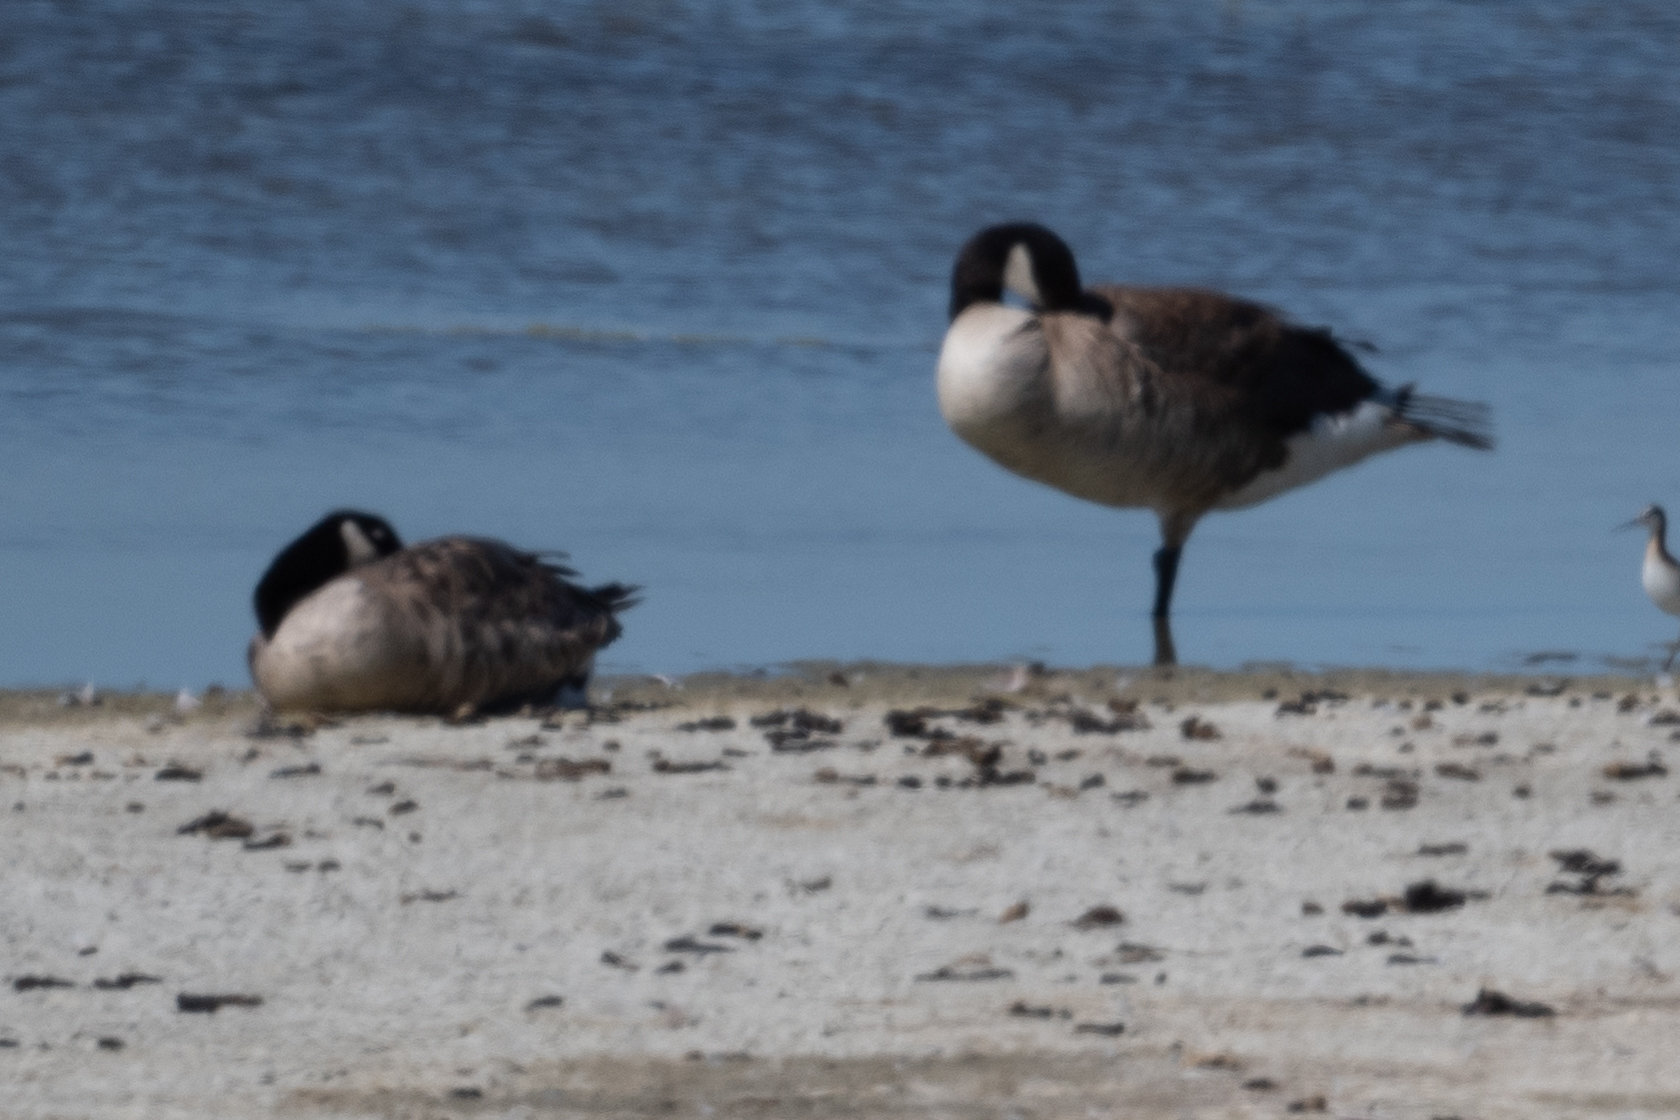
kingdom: Animalia
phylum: Chordata
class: Aves
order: Anseriformes
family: Anatidae
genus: Branta
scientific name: Branta canadensis
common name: Canada goose
